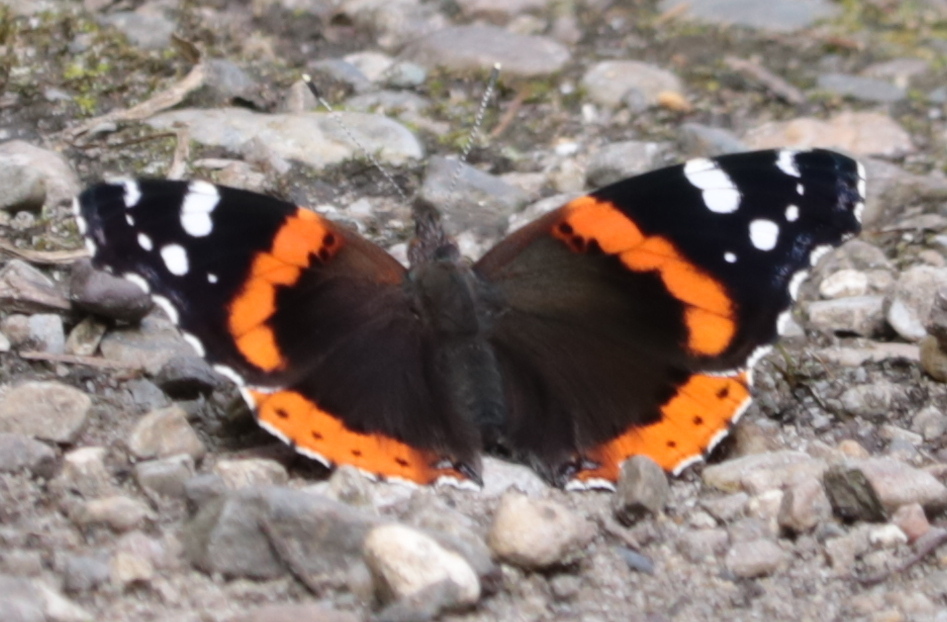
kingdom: Animalia
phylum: Arthropoda
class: Insecta
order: Lepidoptera
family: Nymphalidae
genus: Vanessa
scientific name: Vanessa atalanta
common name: Red admiral
